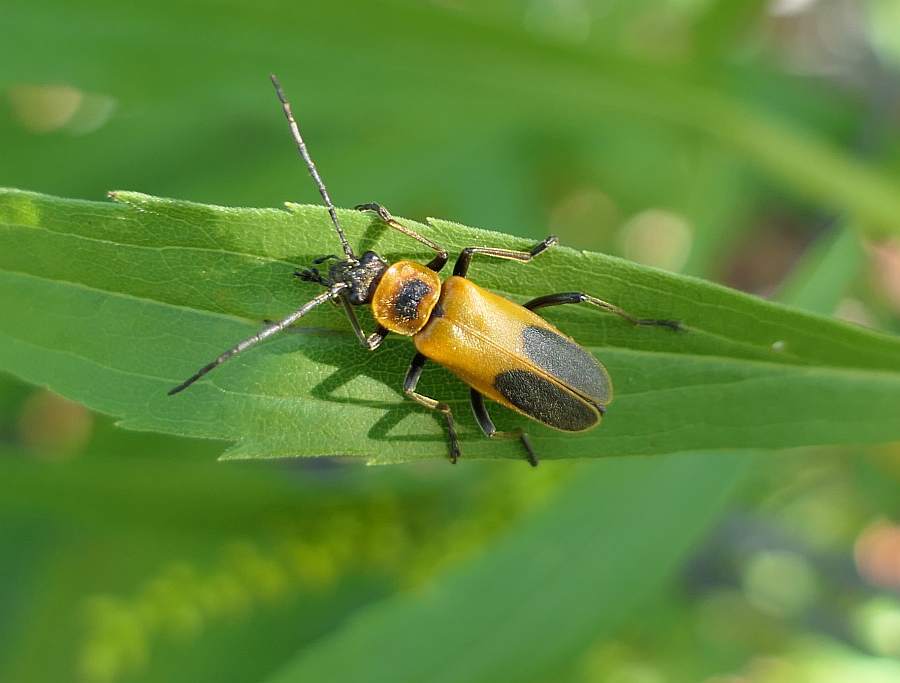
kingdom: Animalia
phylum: Arthropoda
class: Insecta
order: Coleoptera
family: Cantharidae
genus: Chauliognathus
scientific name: Chauliognathus pensylvanicus
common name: Goldenrod soldier beetle
